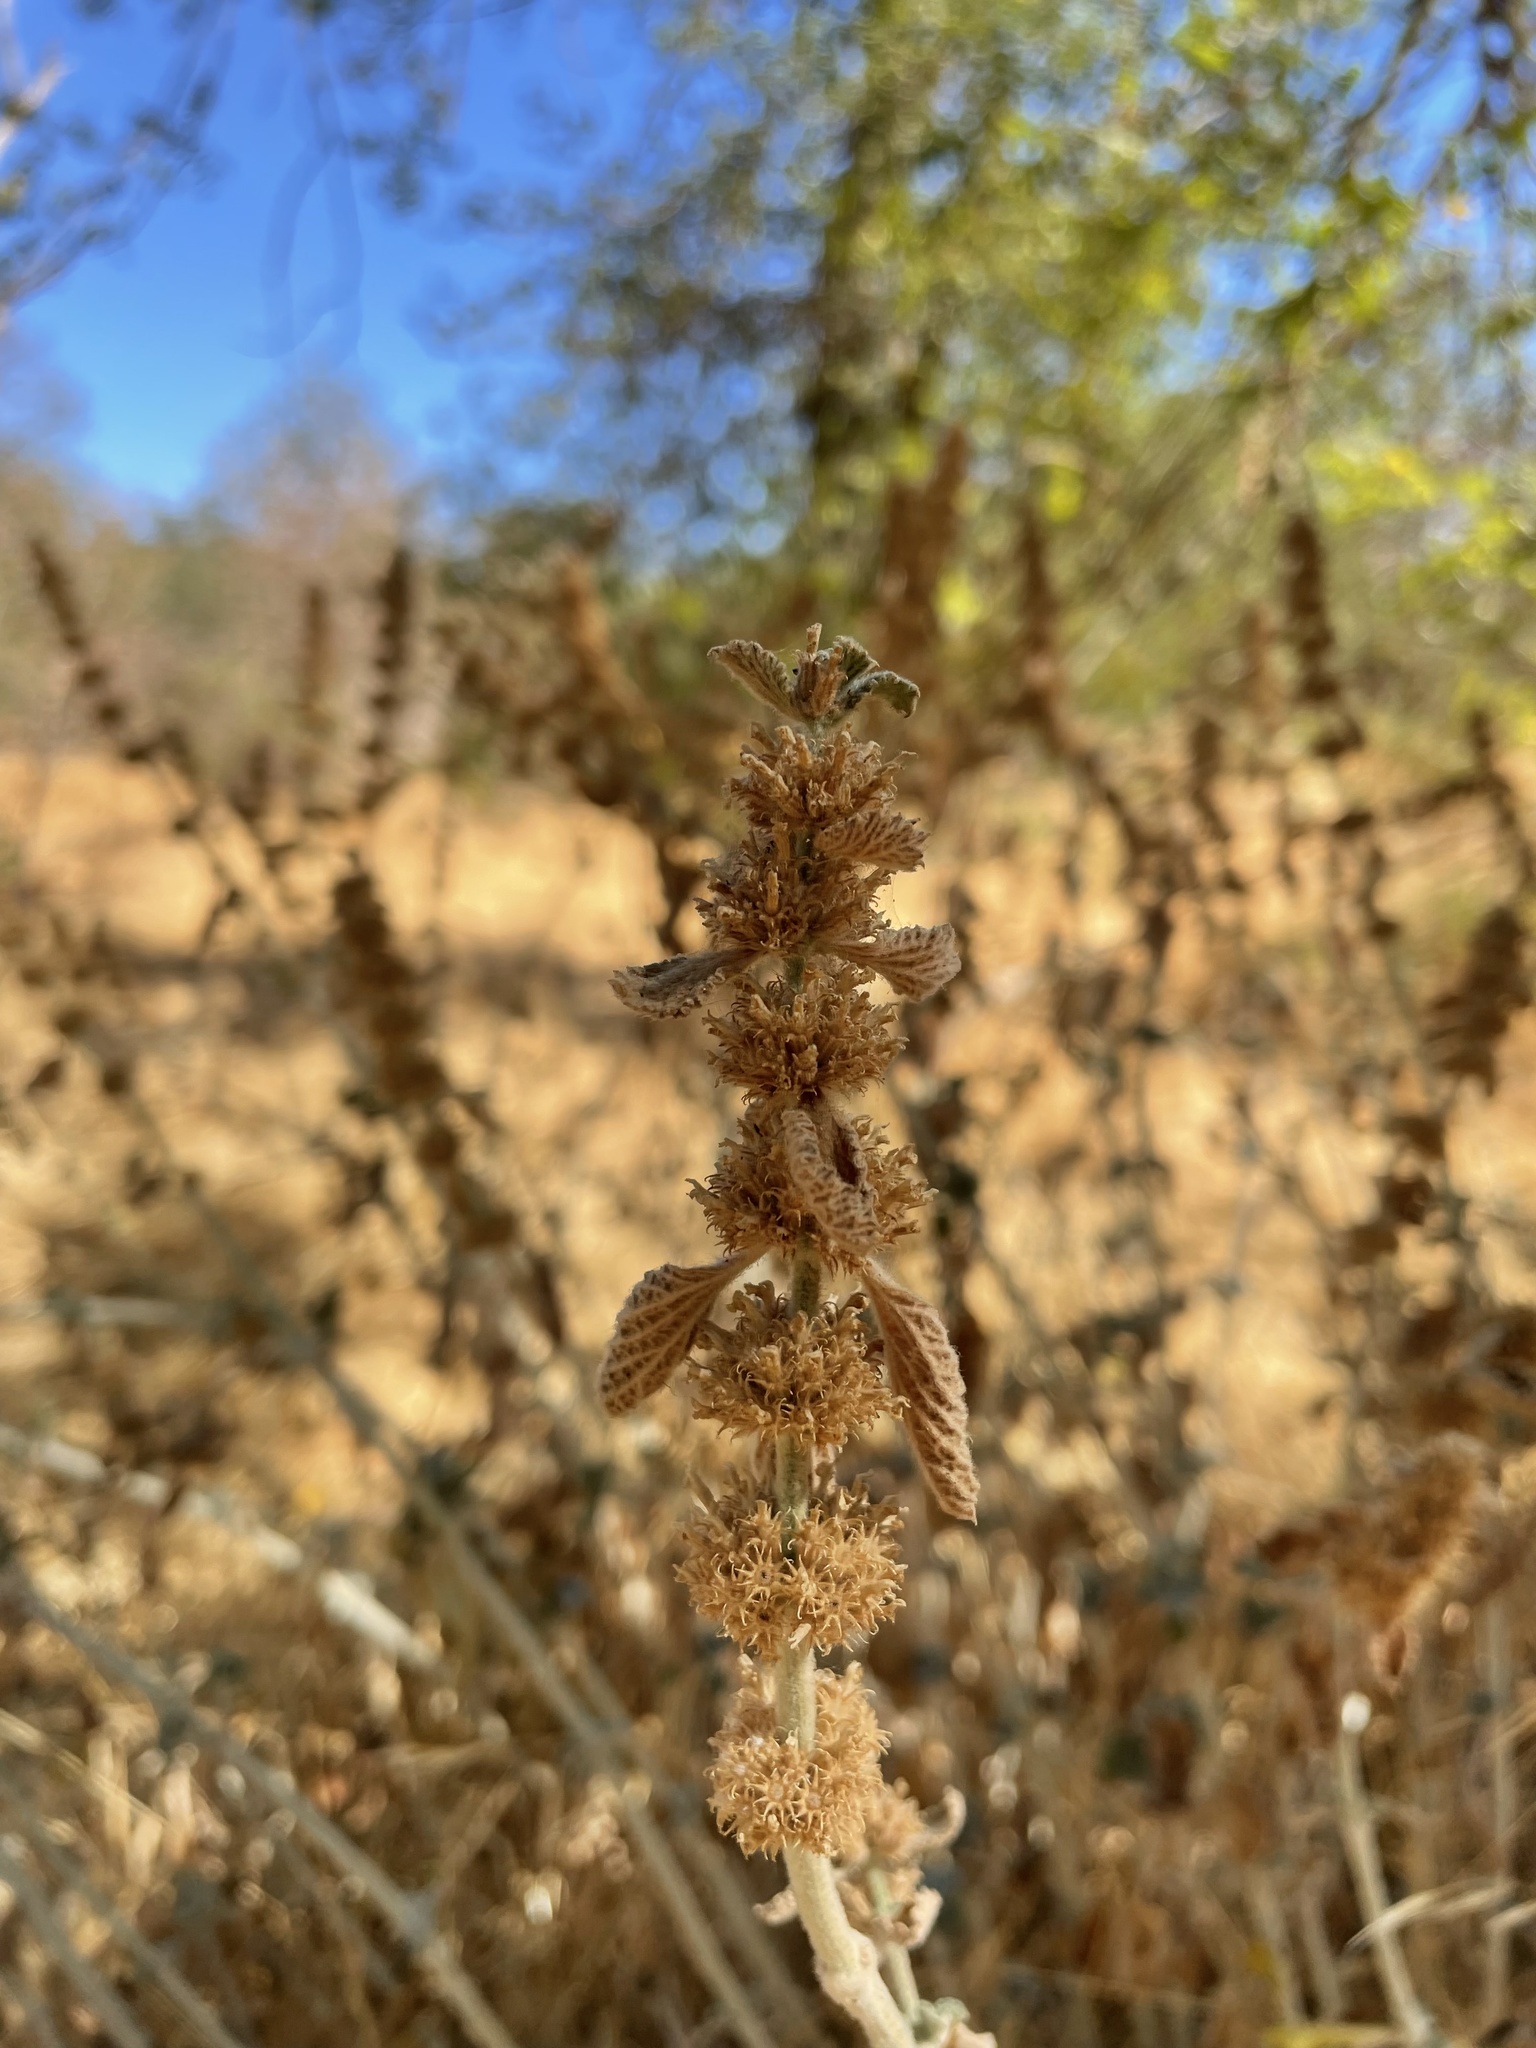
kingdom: Plantae
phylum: Tracheophyta
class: Magnoliopsida
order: Lamiales
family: Lamiaceae
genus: Marrubium
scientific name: Marrubium vulgare
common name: Horehound
